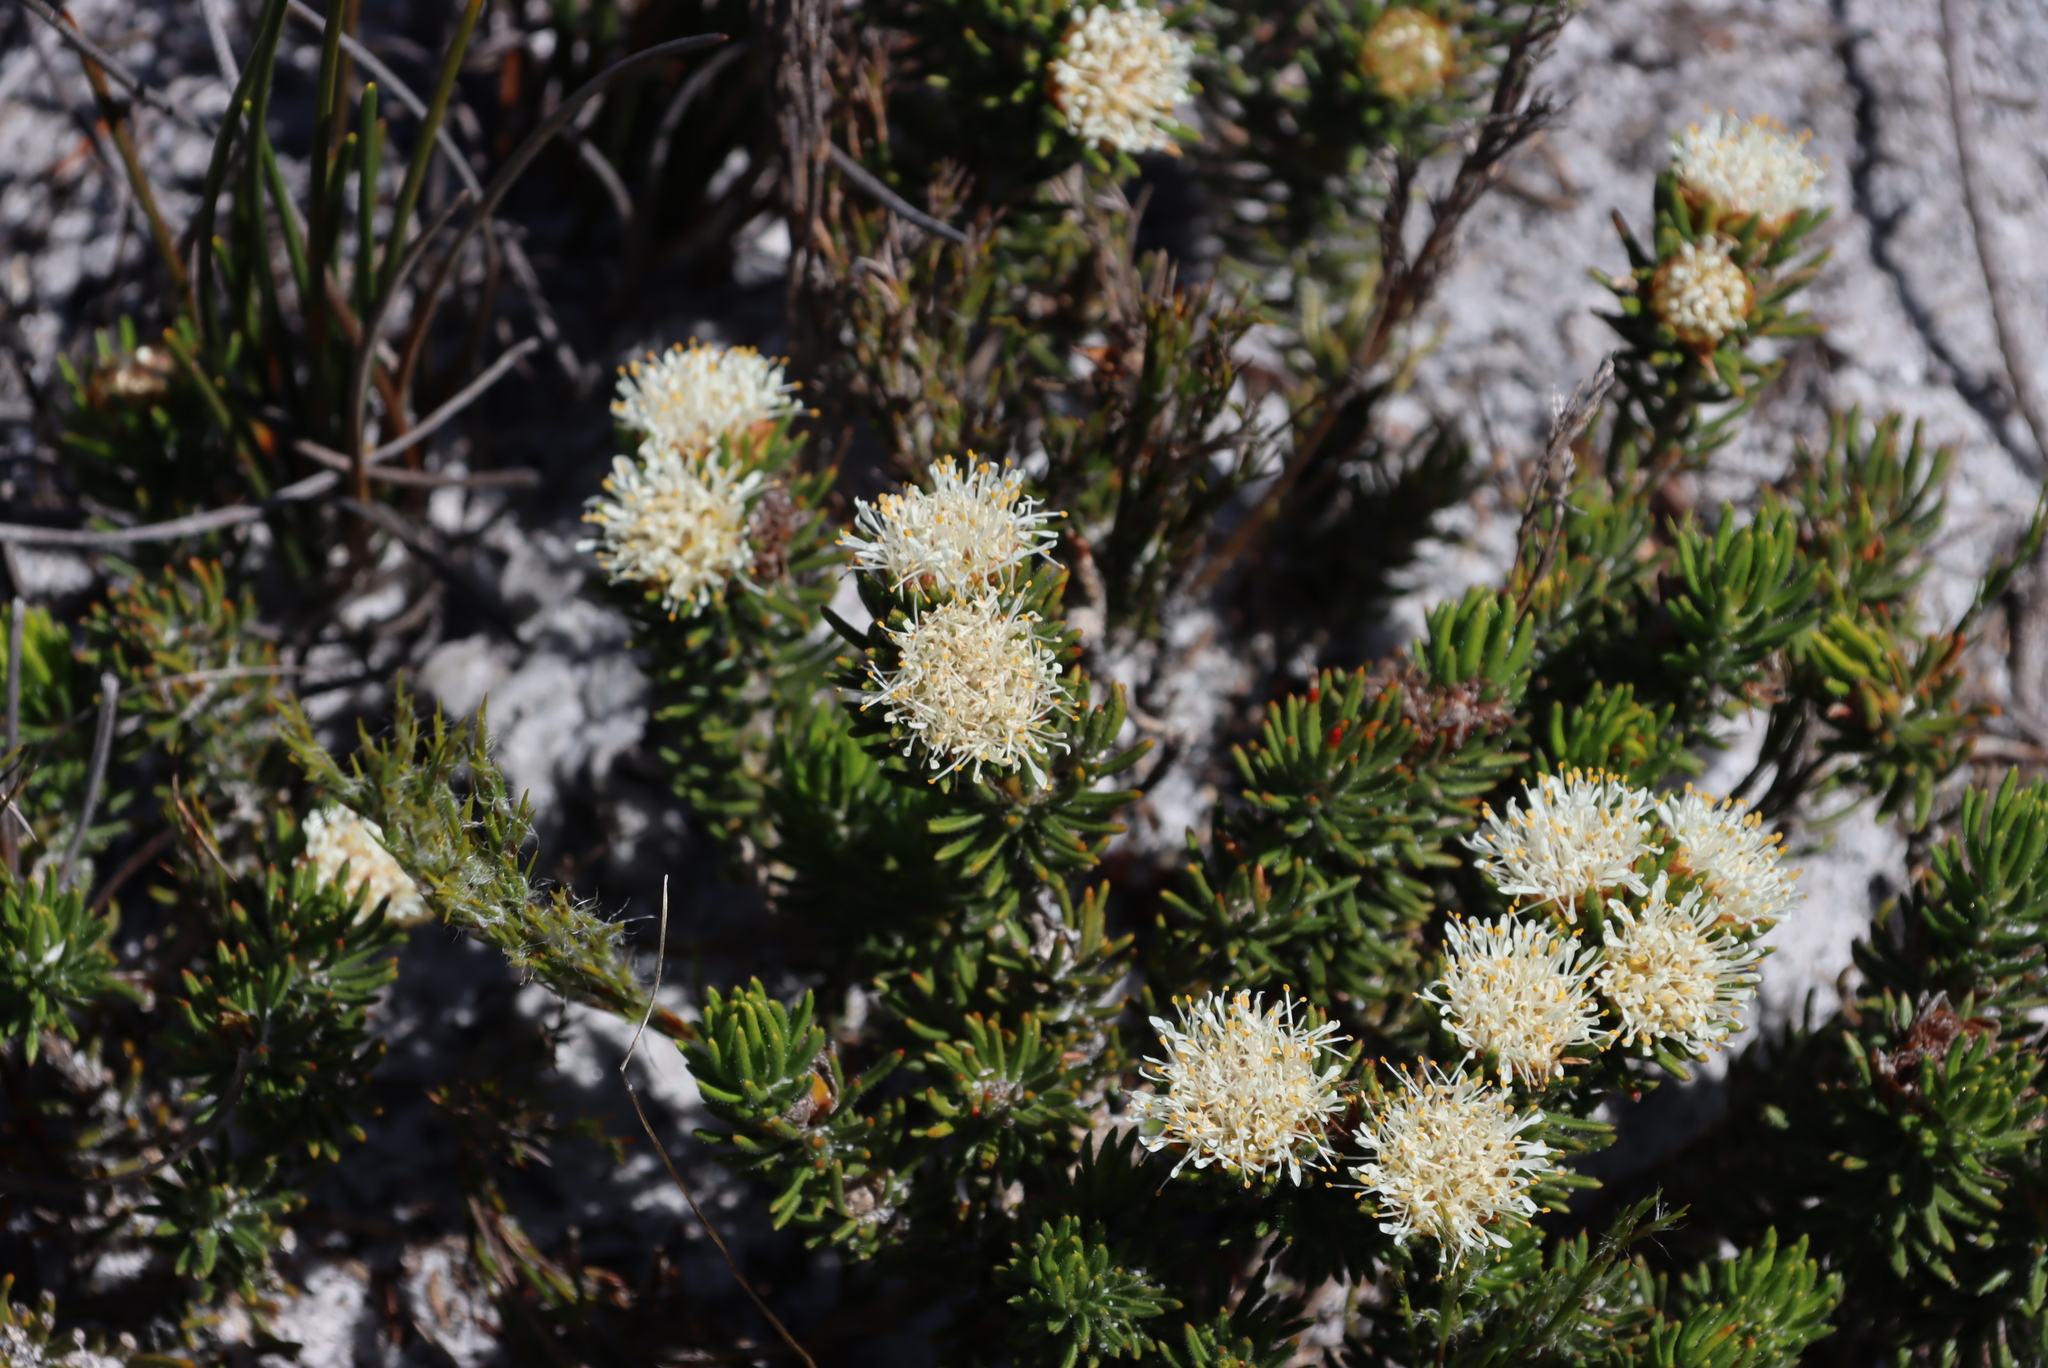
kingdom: Plantae
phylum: Tracheophyta
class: Magnoliopsida
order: Sapindales
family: Rutaceae
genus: Agathosma
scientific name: Agathosma hookeri
